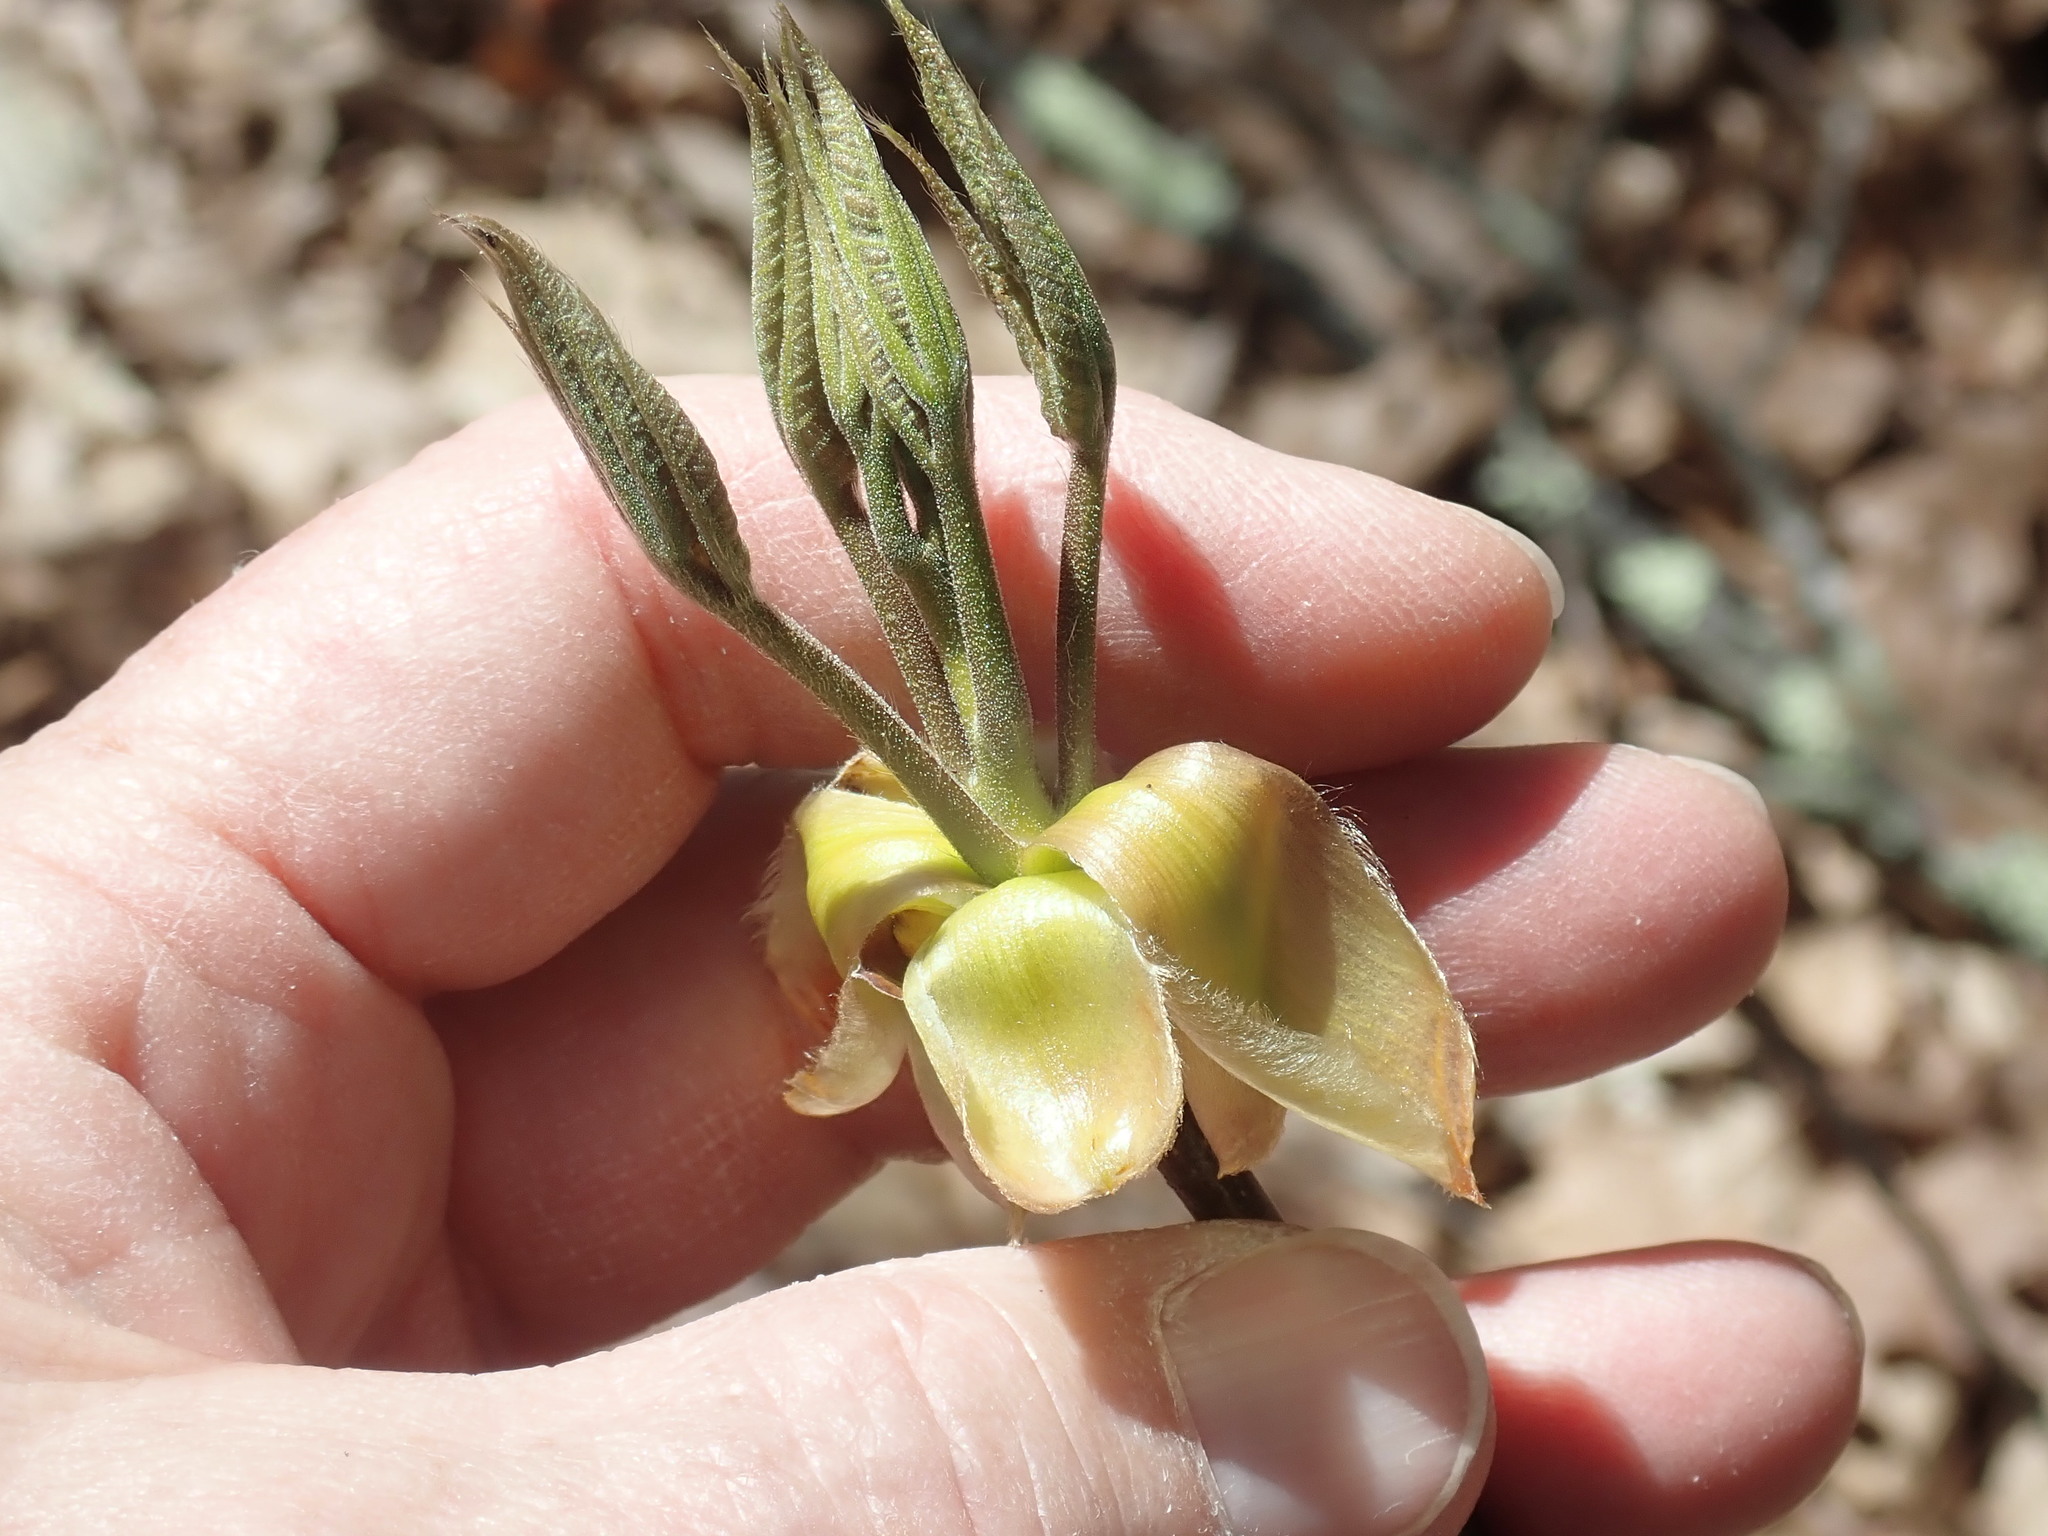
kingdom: Plantae
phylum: Tracheophyta
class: Magnoliopsida
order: Fagales
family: Juglandaceae
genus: Carya
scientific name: Carya
